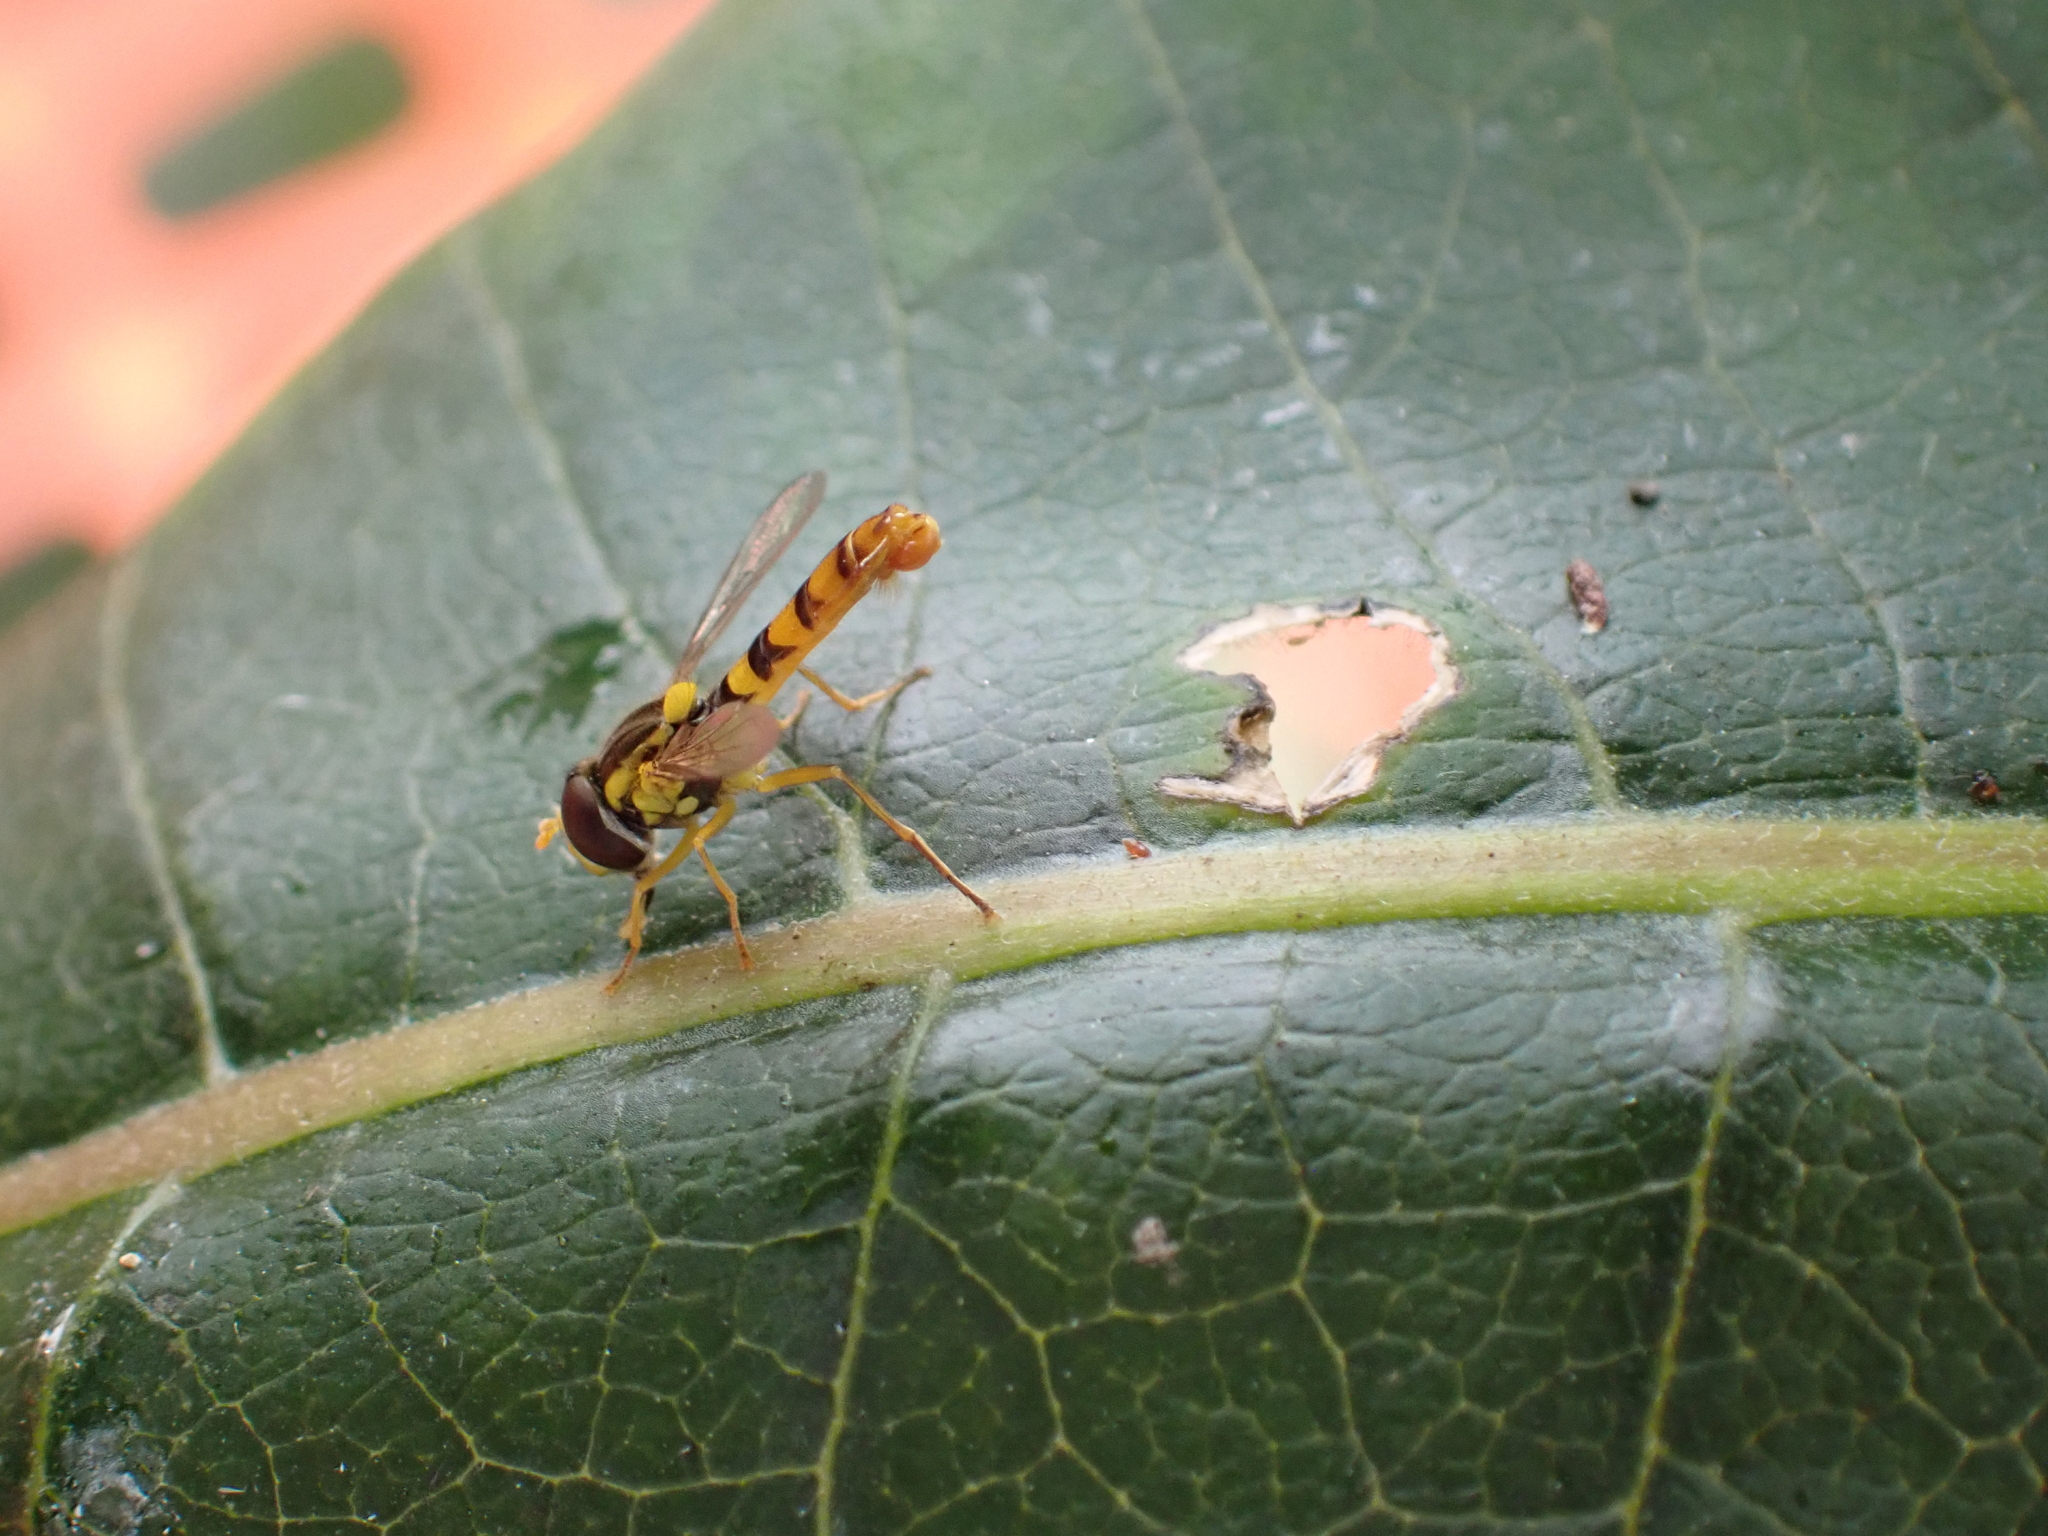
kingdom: Animalia
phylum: Arthropoda
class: Insecta
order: Diptera
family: Syrphidae
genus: Sphaerophoria
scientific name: Sphaerophoria
